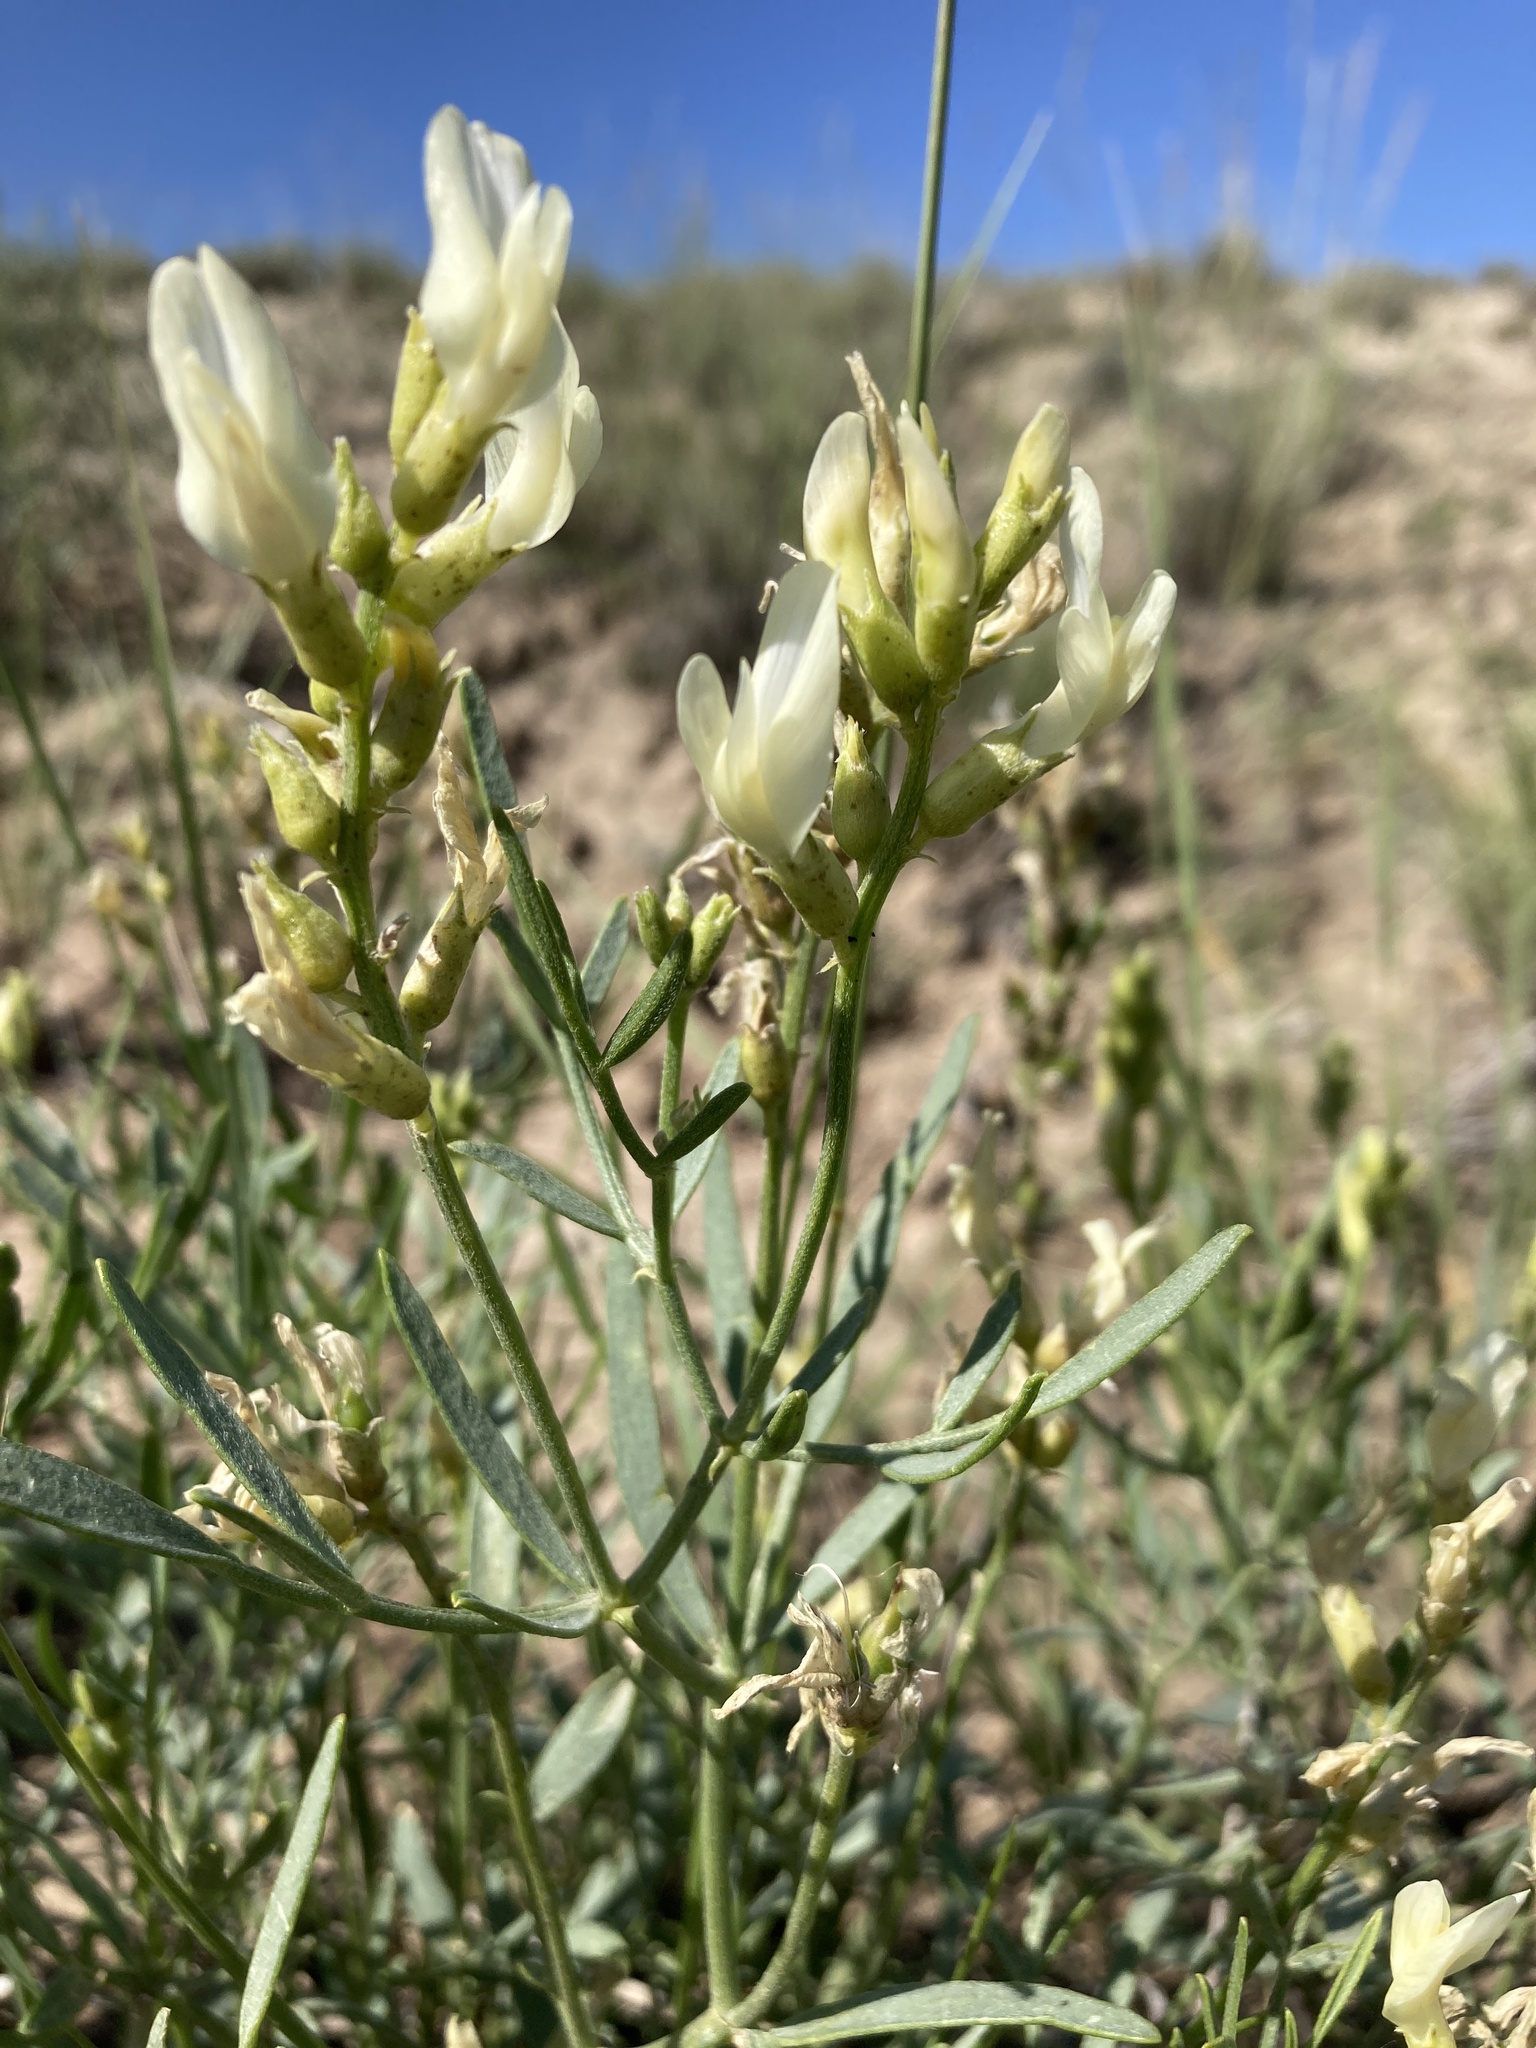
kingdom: Plantae
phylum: Tracheophyta
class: Magnoliopsida
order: Fabales
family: Fabaceae
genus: Astragalus
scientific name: Astragalus grayi
